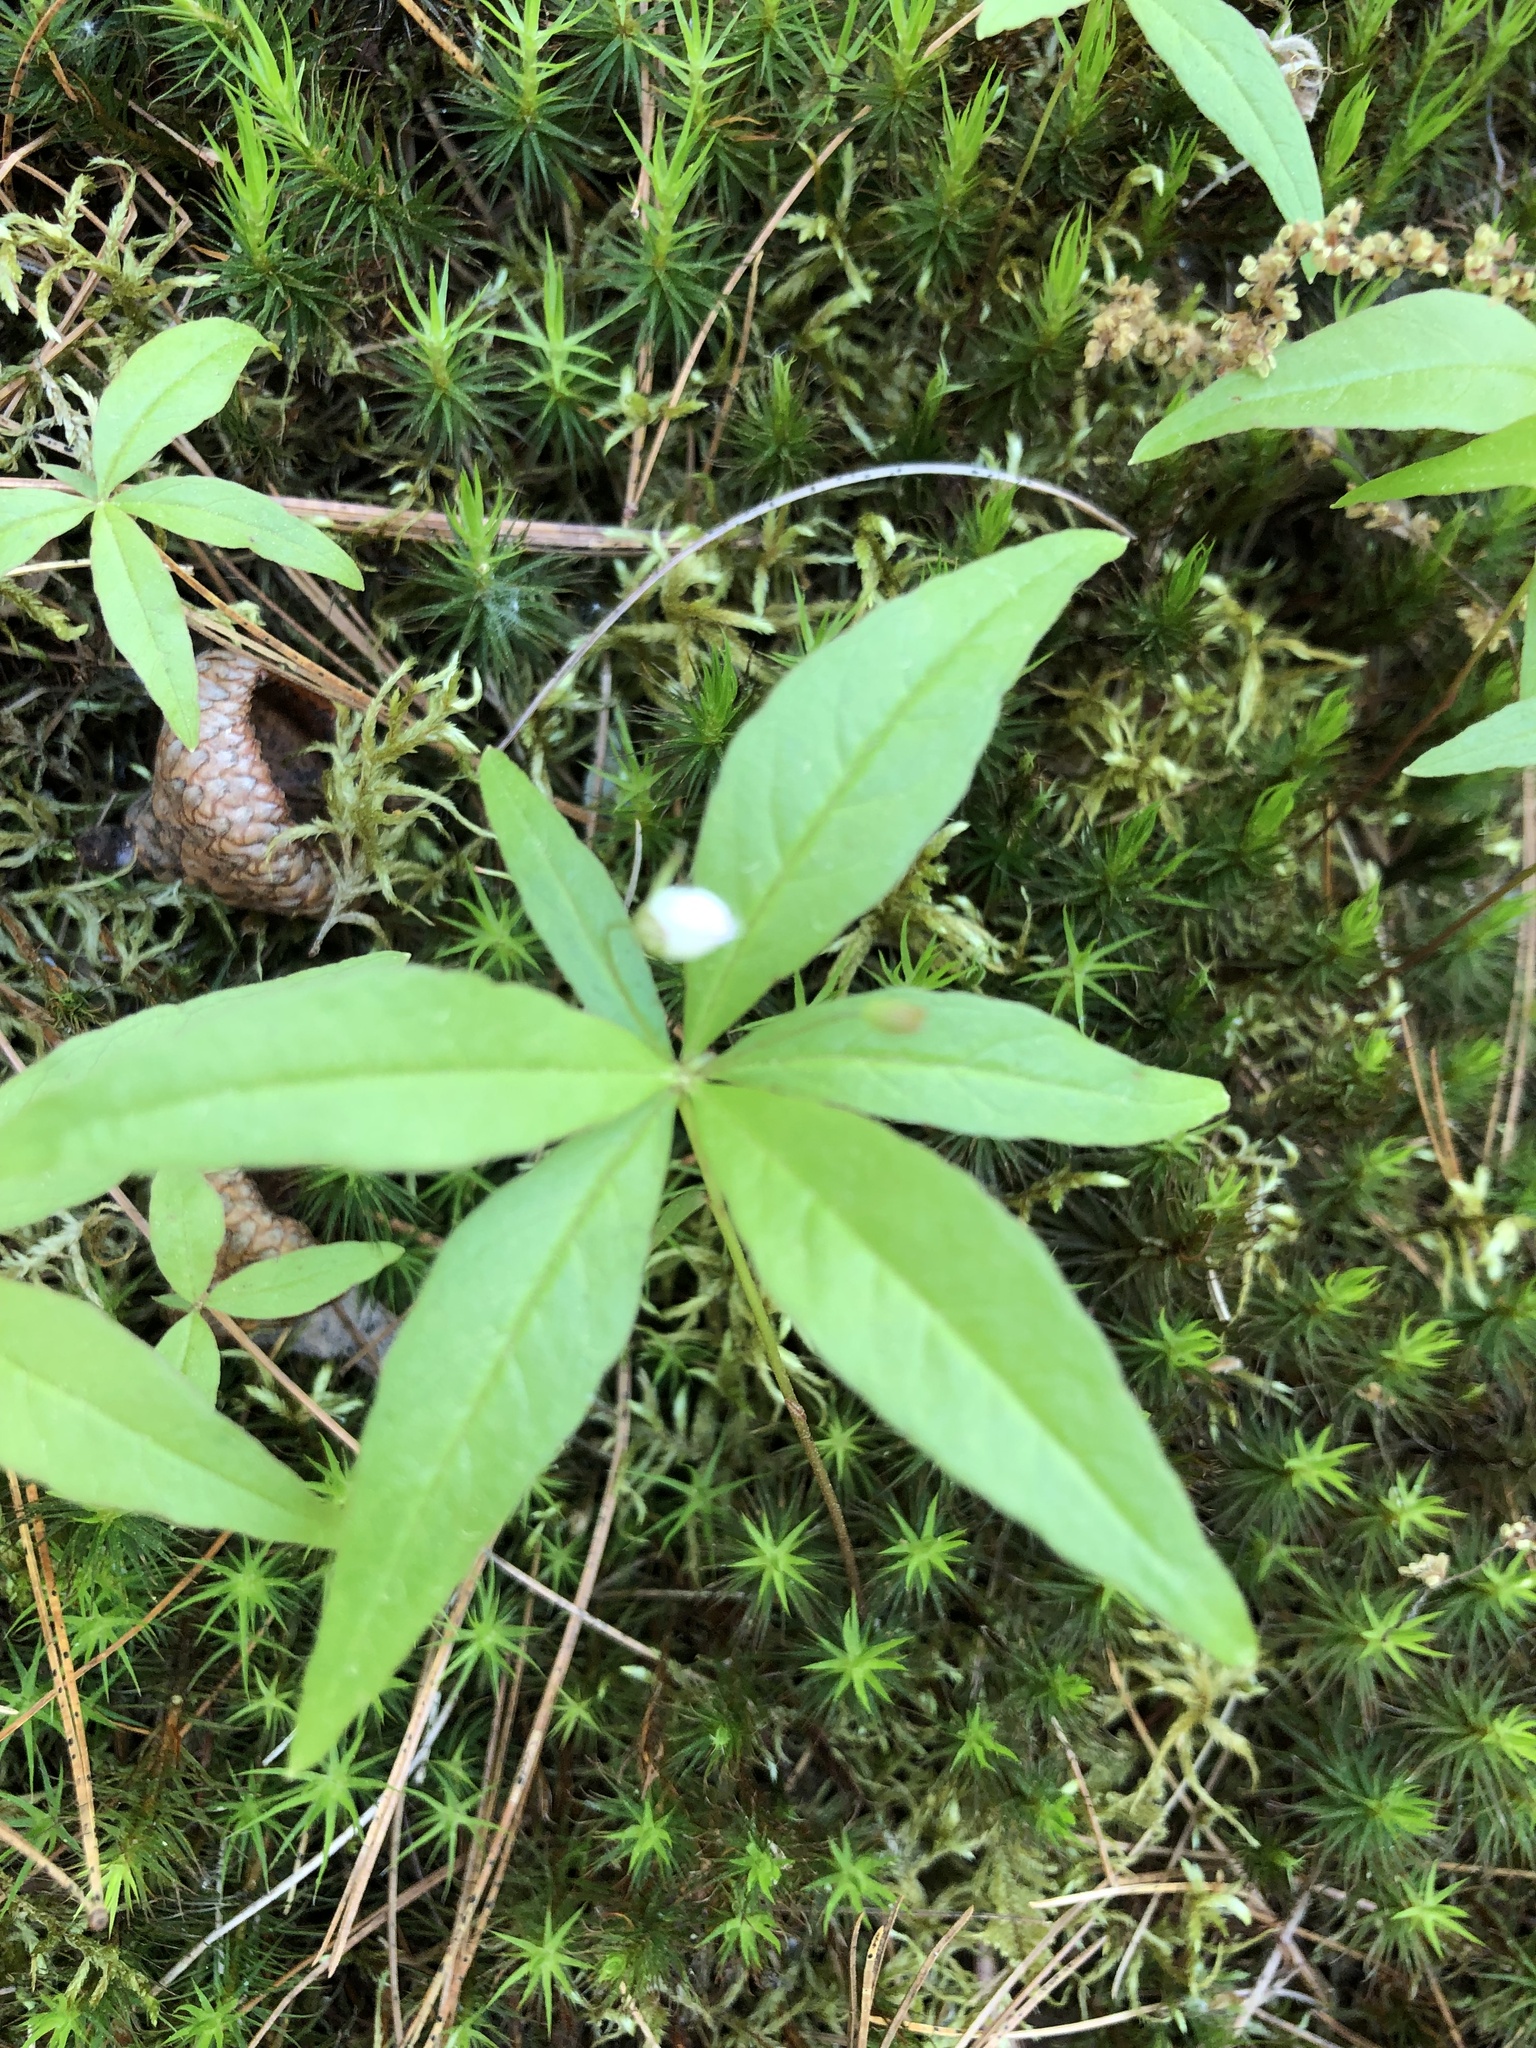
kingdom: Plantae
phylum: Tracheophyta
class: Magnoliopsida
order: Ericales
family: Primulaceae
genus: Lysimachia
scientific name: Lysimachia borealis
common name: American starflower
